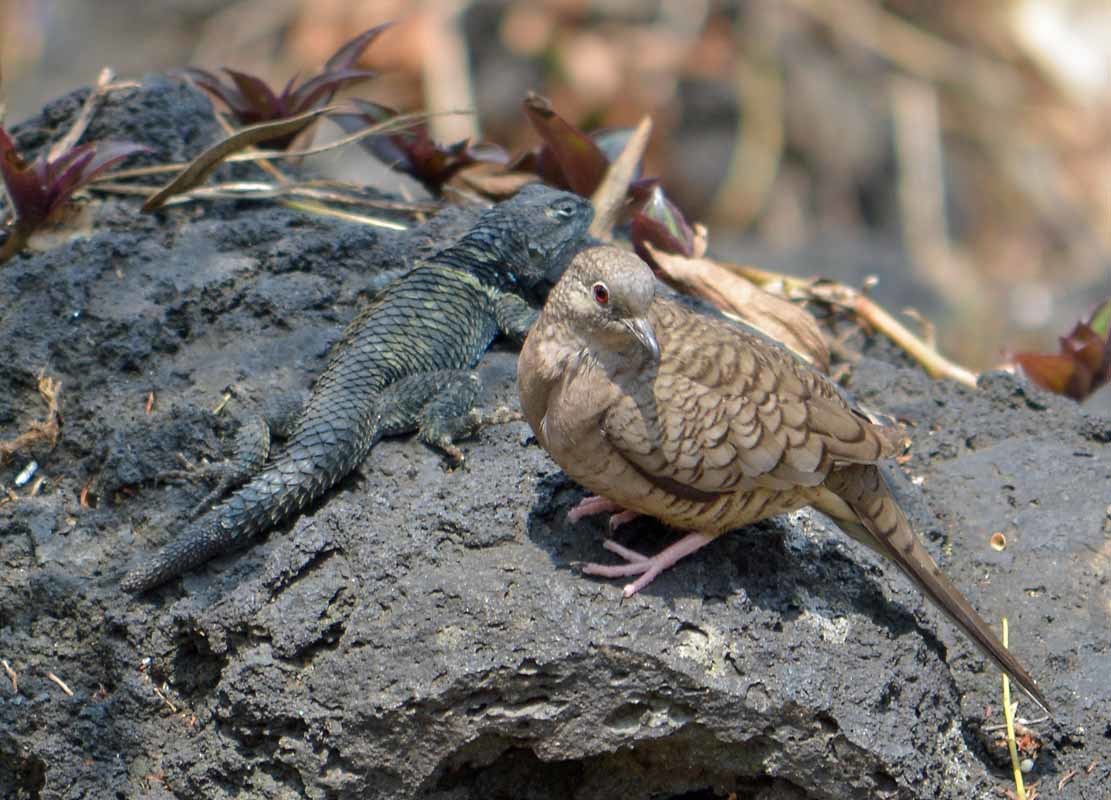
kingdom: Animalia
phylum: Chordata
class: Aves
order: Columbiformes
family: Columbidae
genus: Columbina
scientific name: Columbina inca
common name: Inca dove
